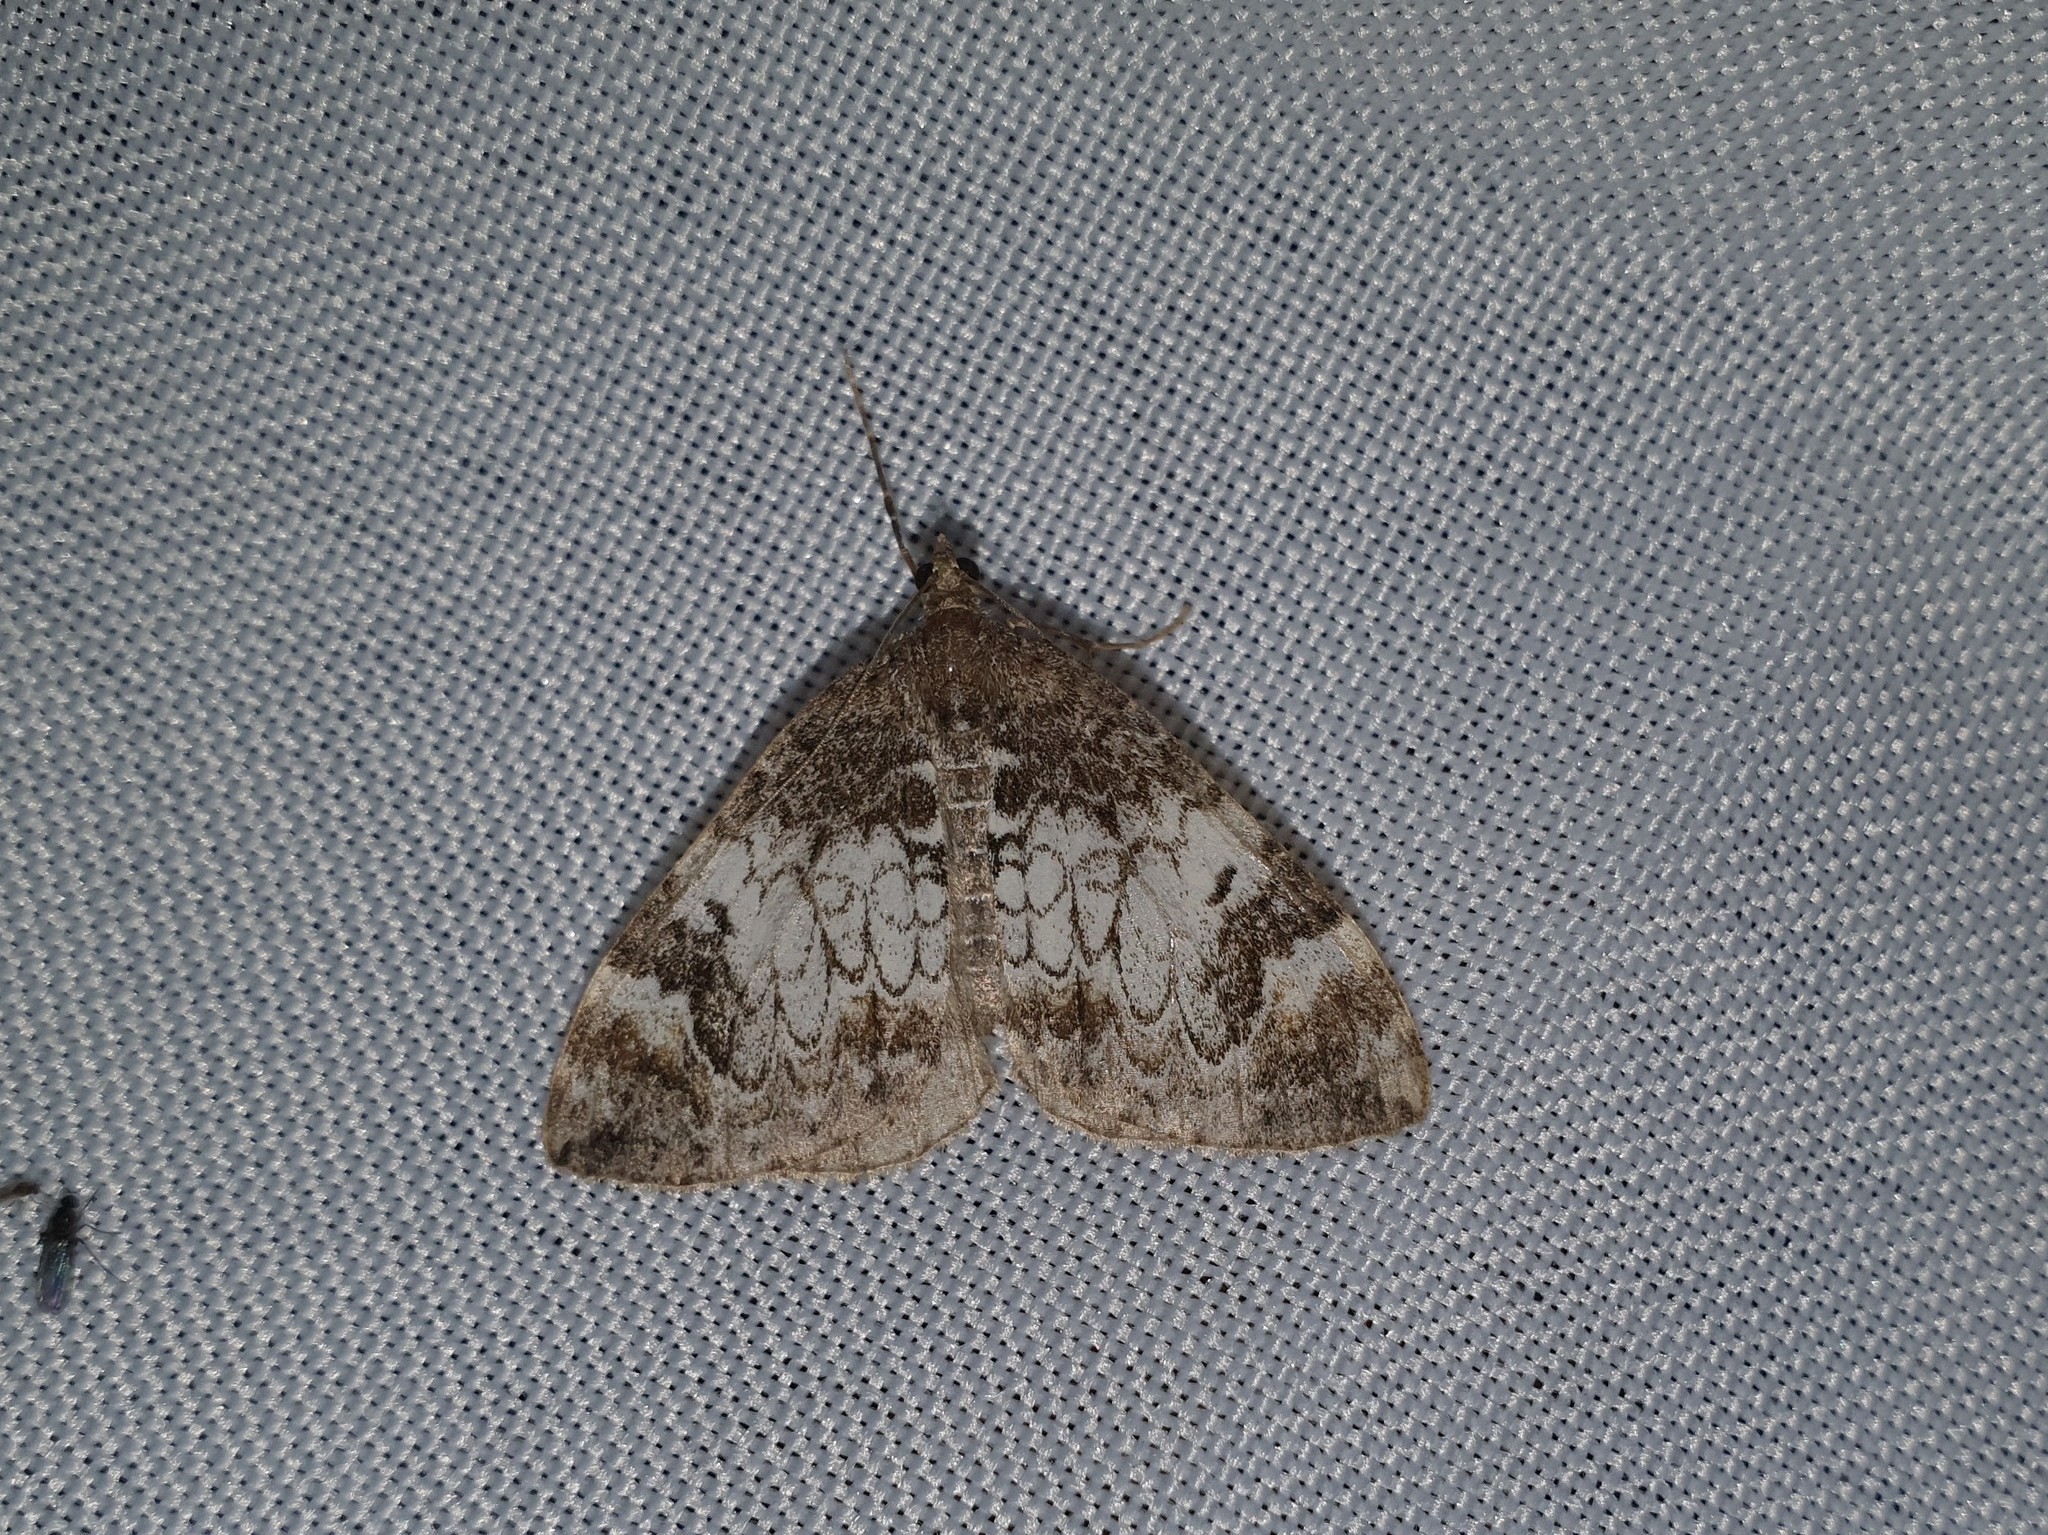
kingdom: Animalia
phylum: Arthropoda
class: Insecta
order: Lepidoptera
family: Geometridae
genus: Dysstroma
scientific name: Dysstroma truncata
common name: Common marbled carpet
